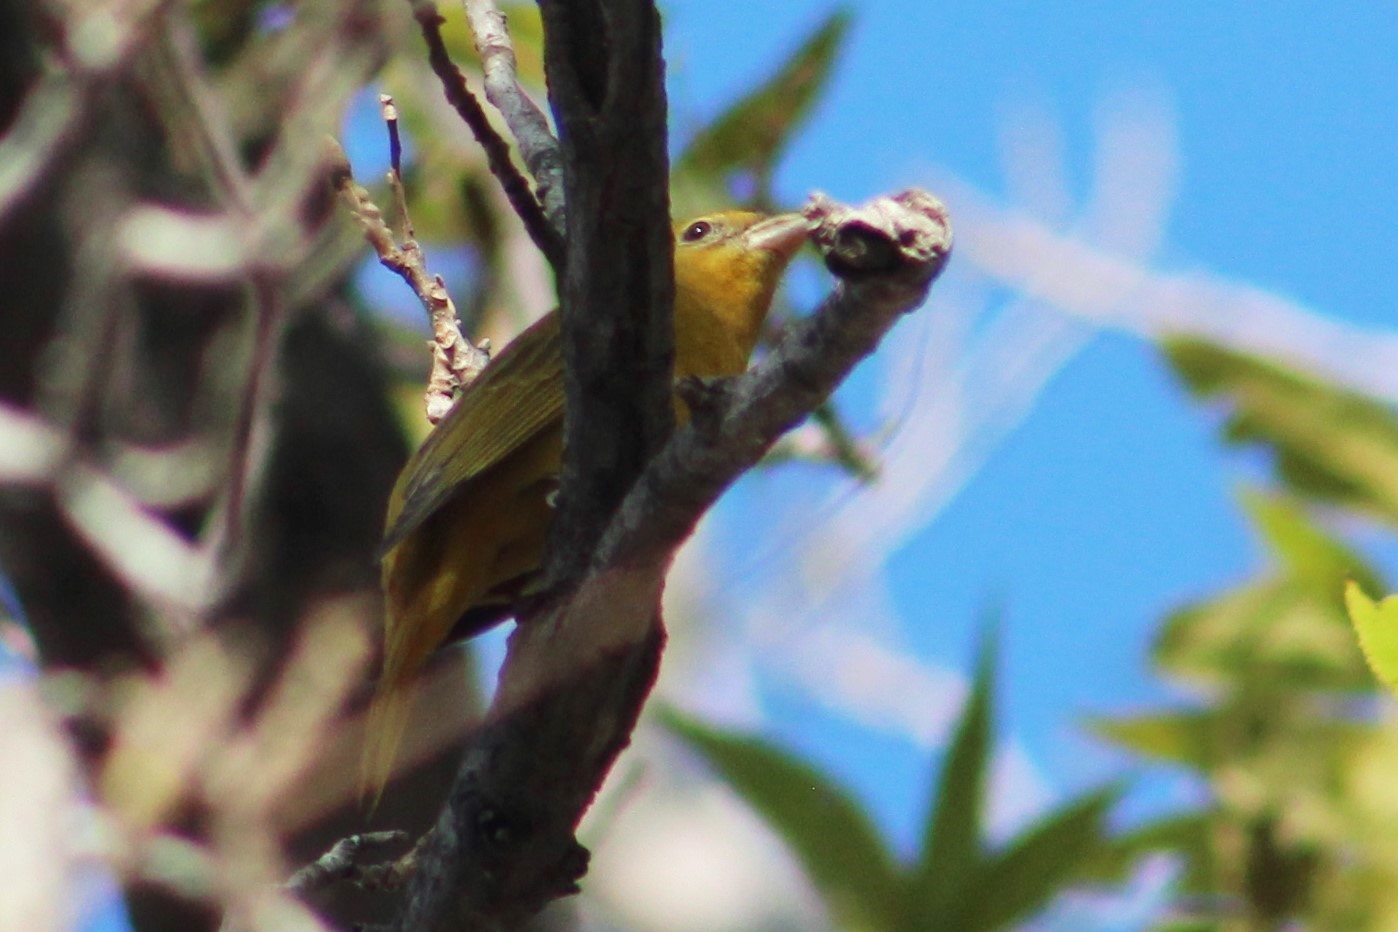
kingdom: Animalia
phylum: Chordata
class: Aves
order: Passeriformes
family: Cardinalidae
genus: Piranga
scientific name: Piranga rubra
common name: Summer tanager
